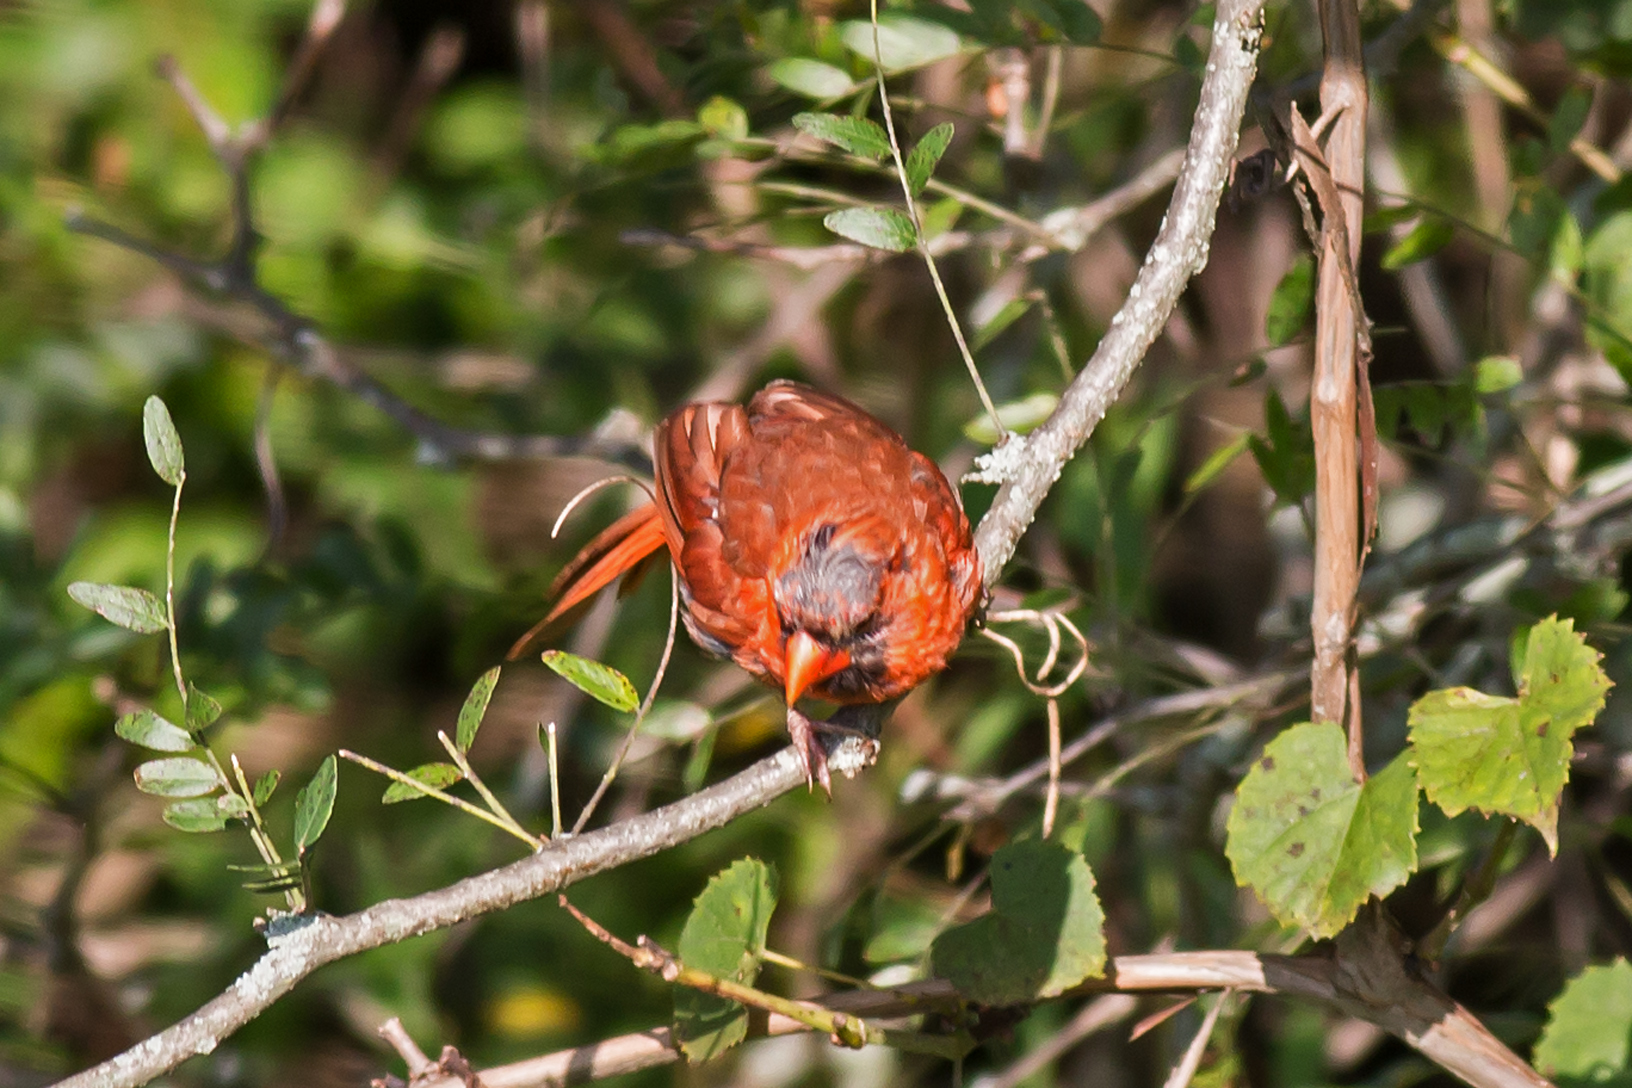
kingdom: Animalia
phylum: Chordata
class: Aves
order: Passeriformes
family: Cardinalidae
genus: Cardinalis
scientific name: Cardinalis cardinalis
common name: Northern cardinal
